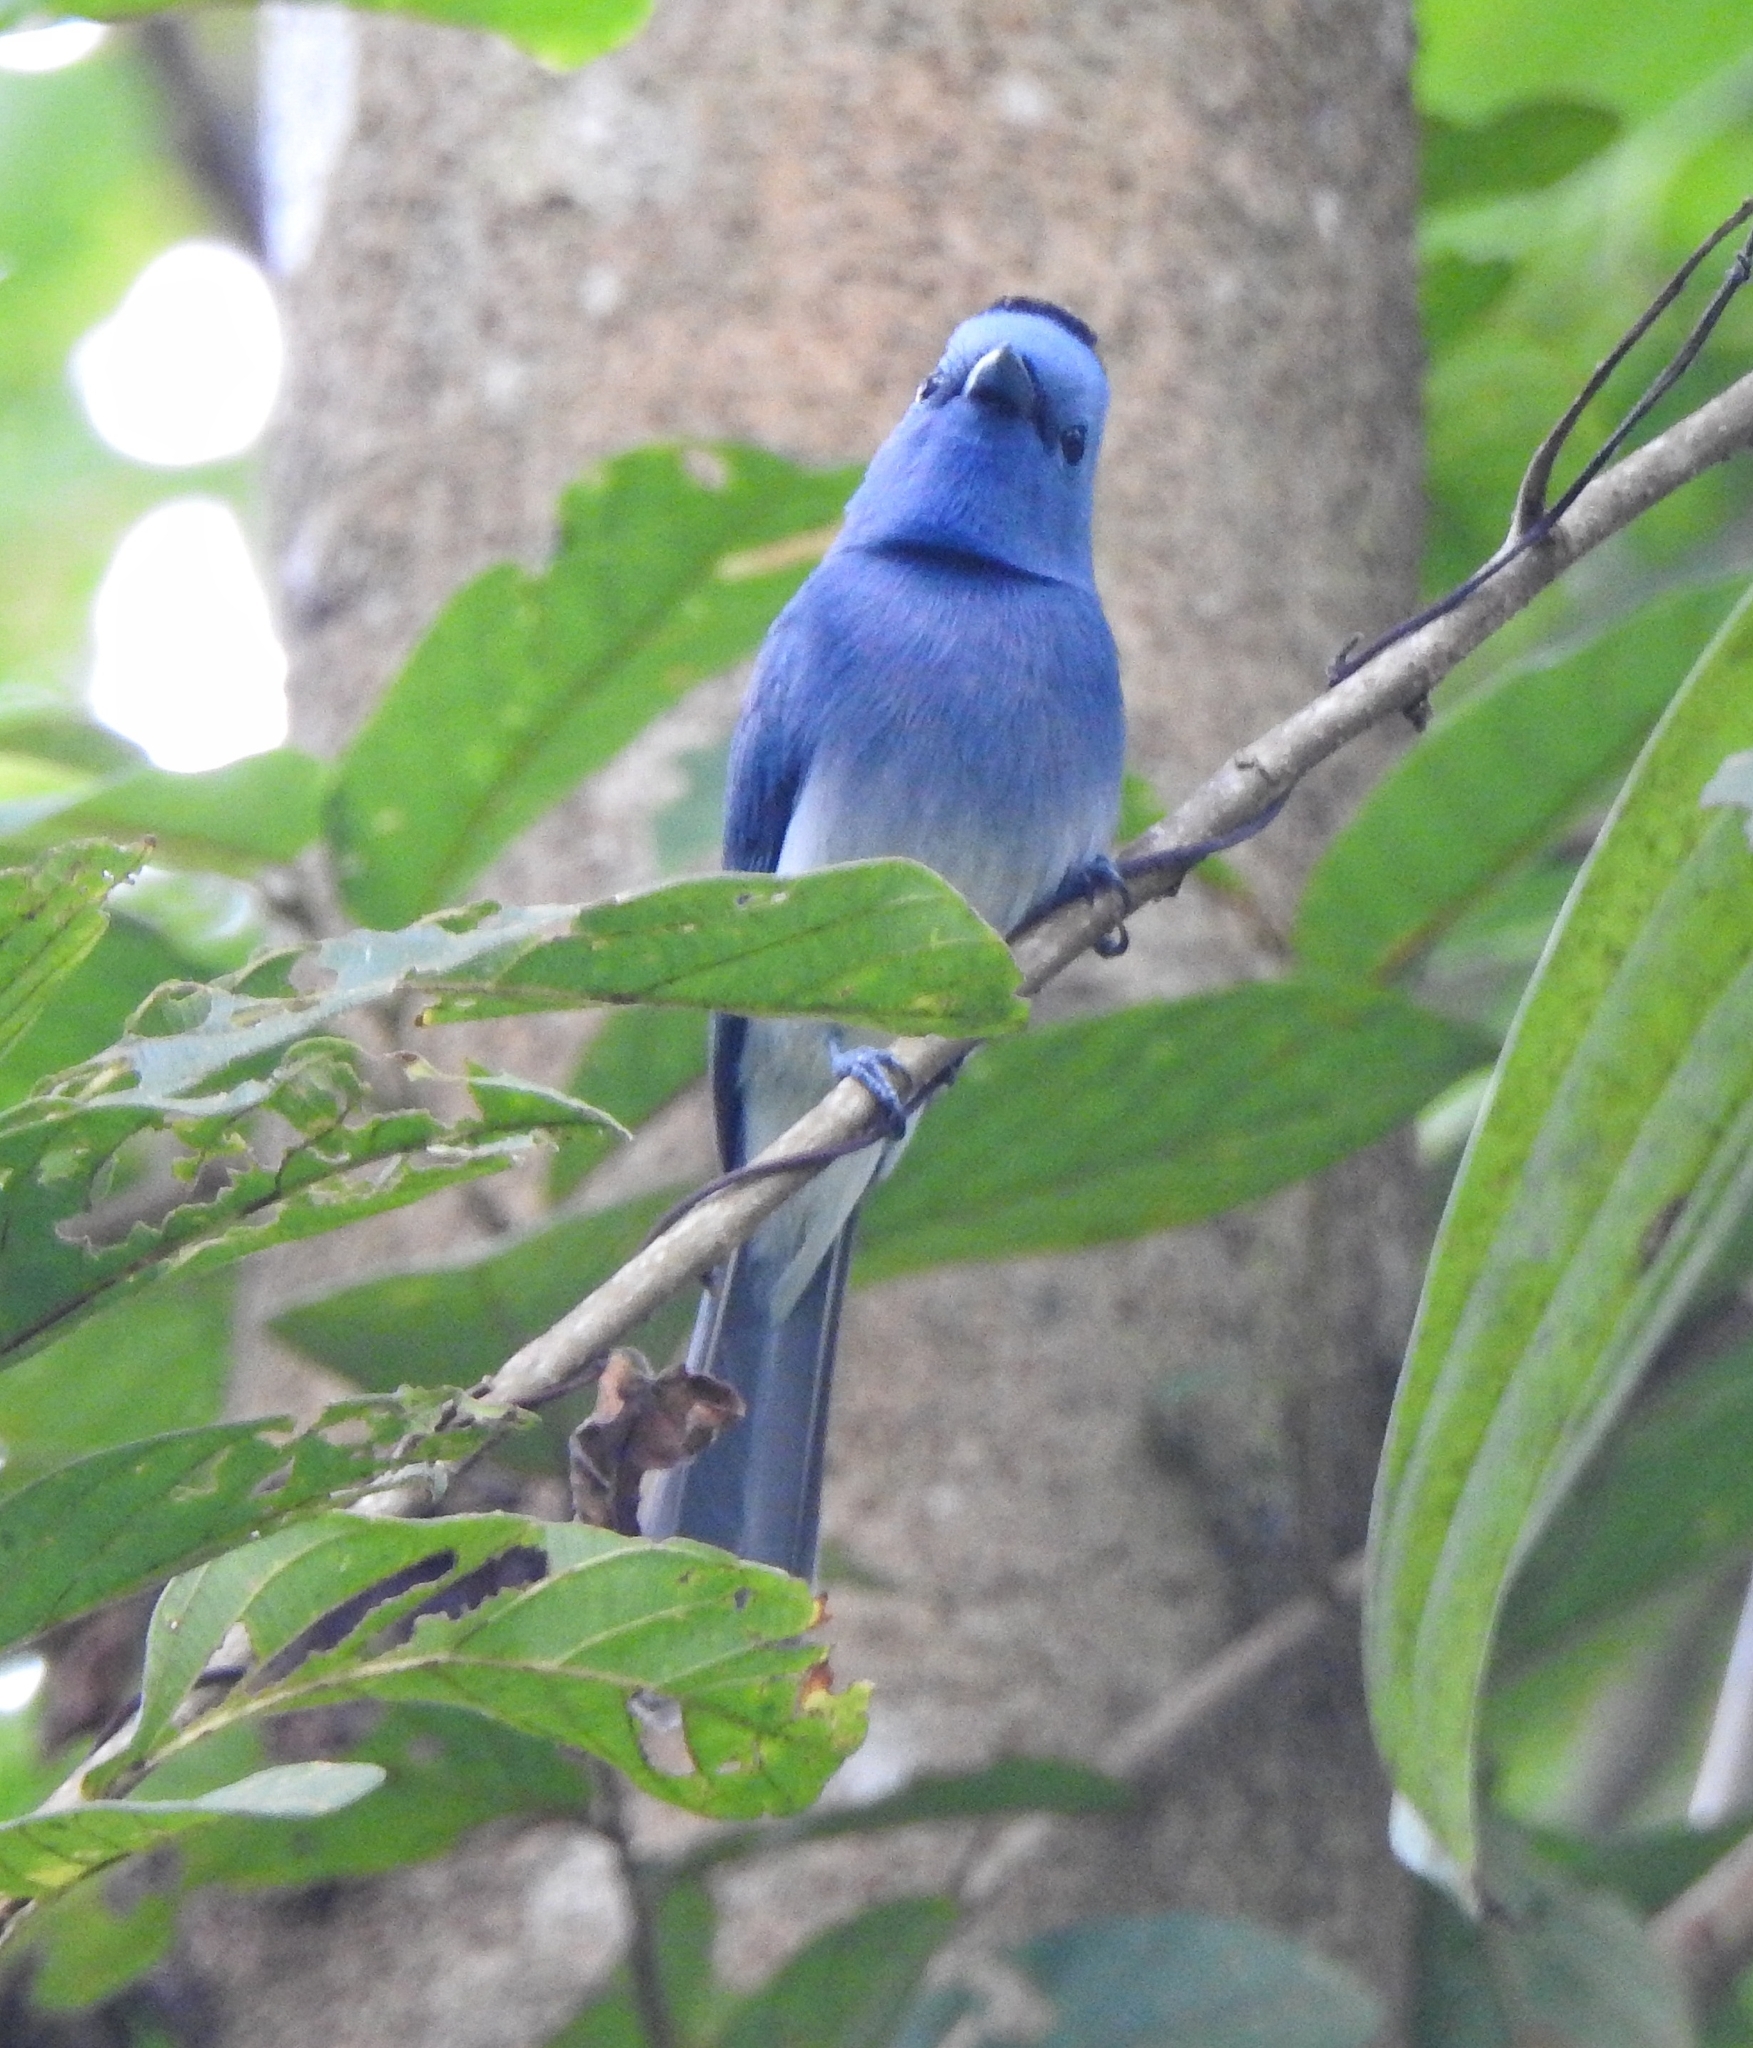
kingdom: Animalia
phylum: Chordata
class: Aves
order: Passeriformes
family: Monarchidae
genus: Hypothymis
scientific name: Hypothymis azurea
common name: Black-naped monarch
